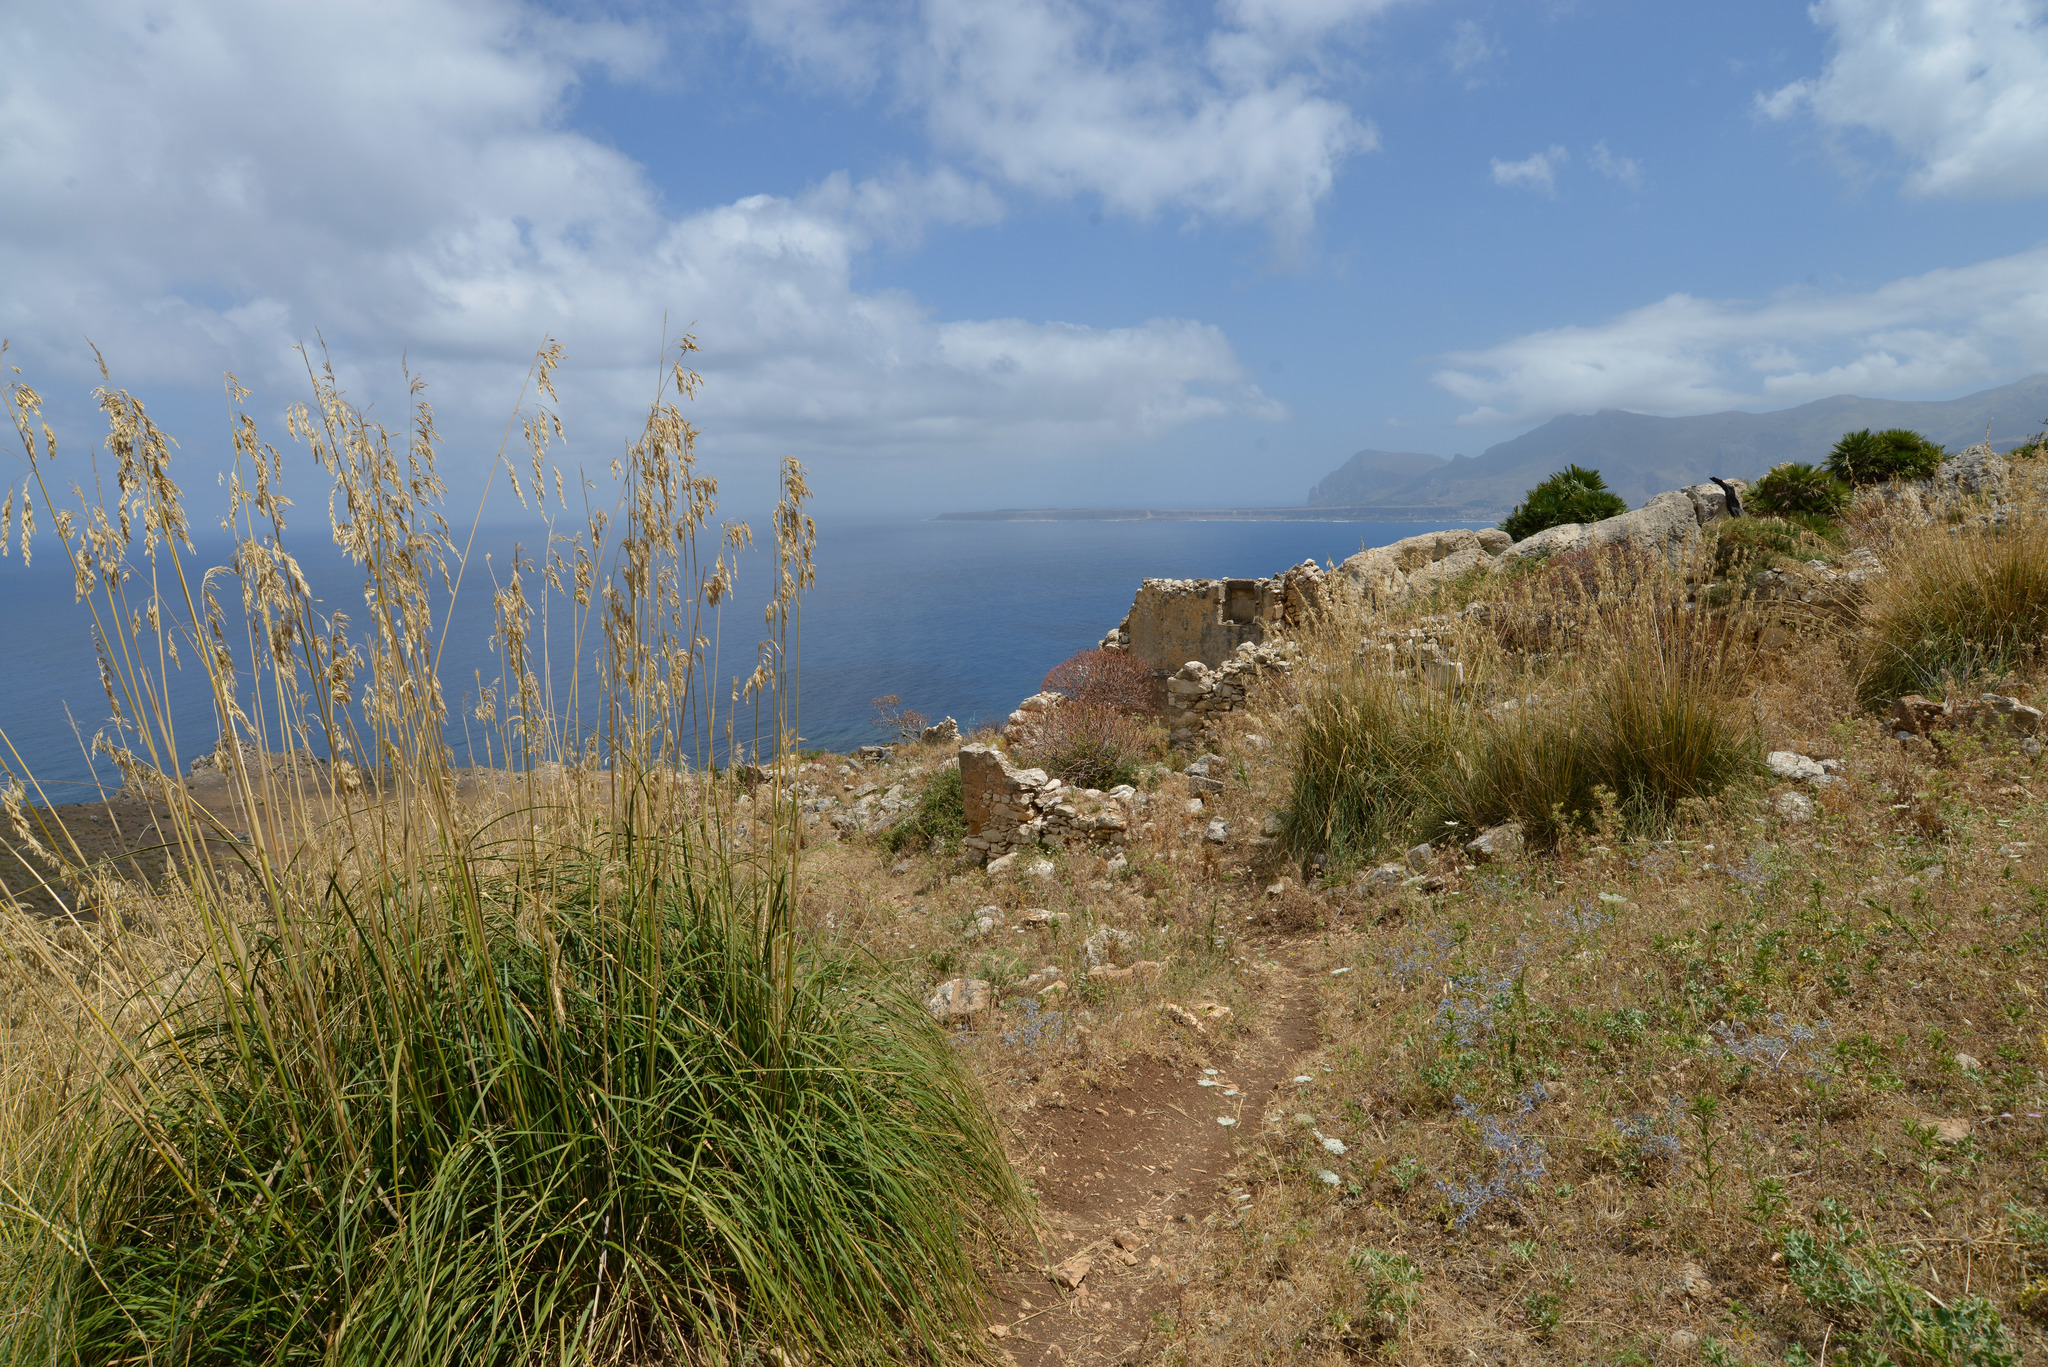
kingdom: Plantae
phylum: Tracheophyta
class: Liliopsida
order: Poales
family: Poaceae
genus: Ampelodesmos
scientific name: Ampelodesmos mauritanicus
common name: Mauritanian grass
